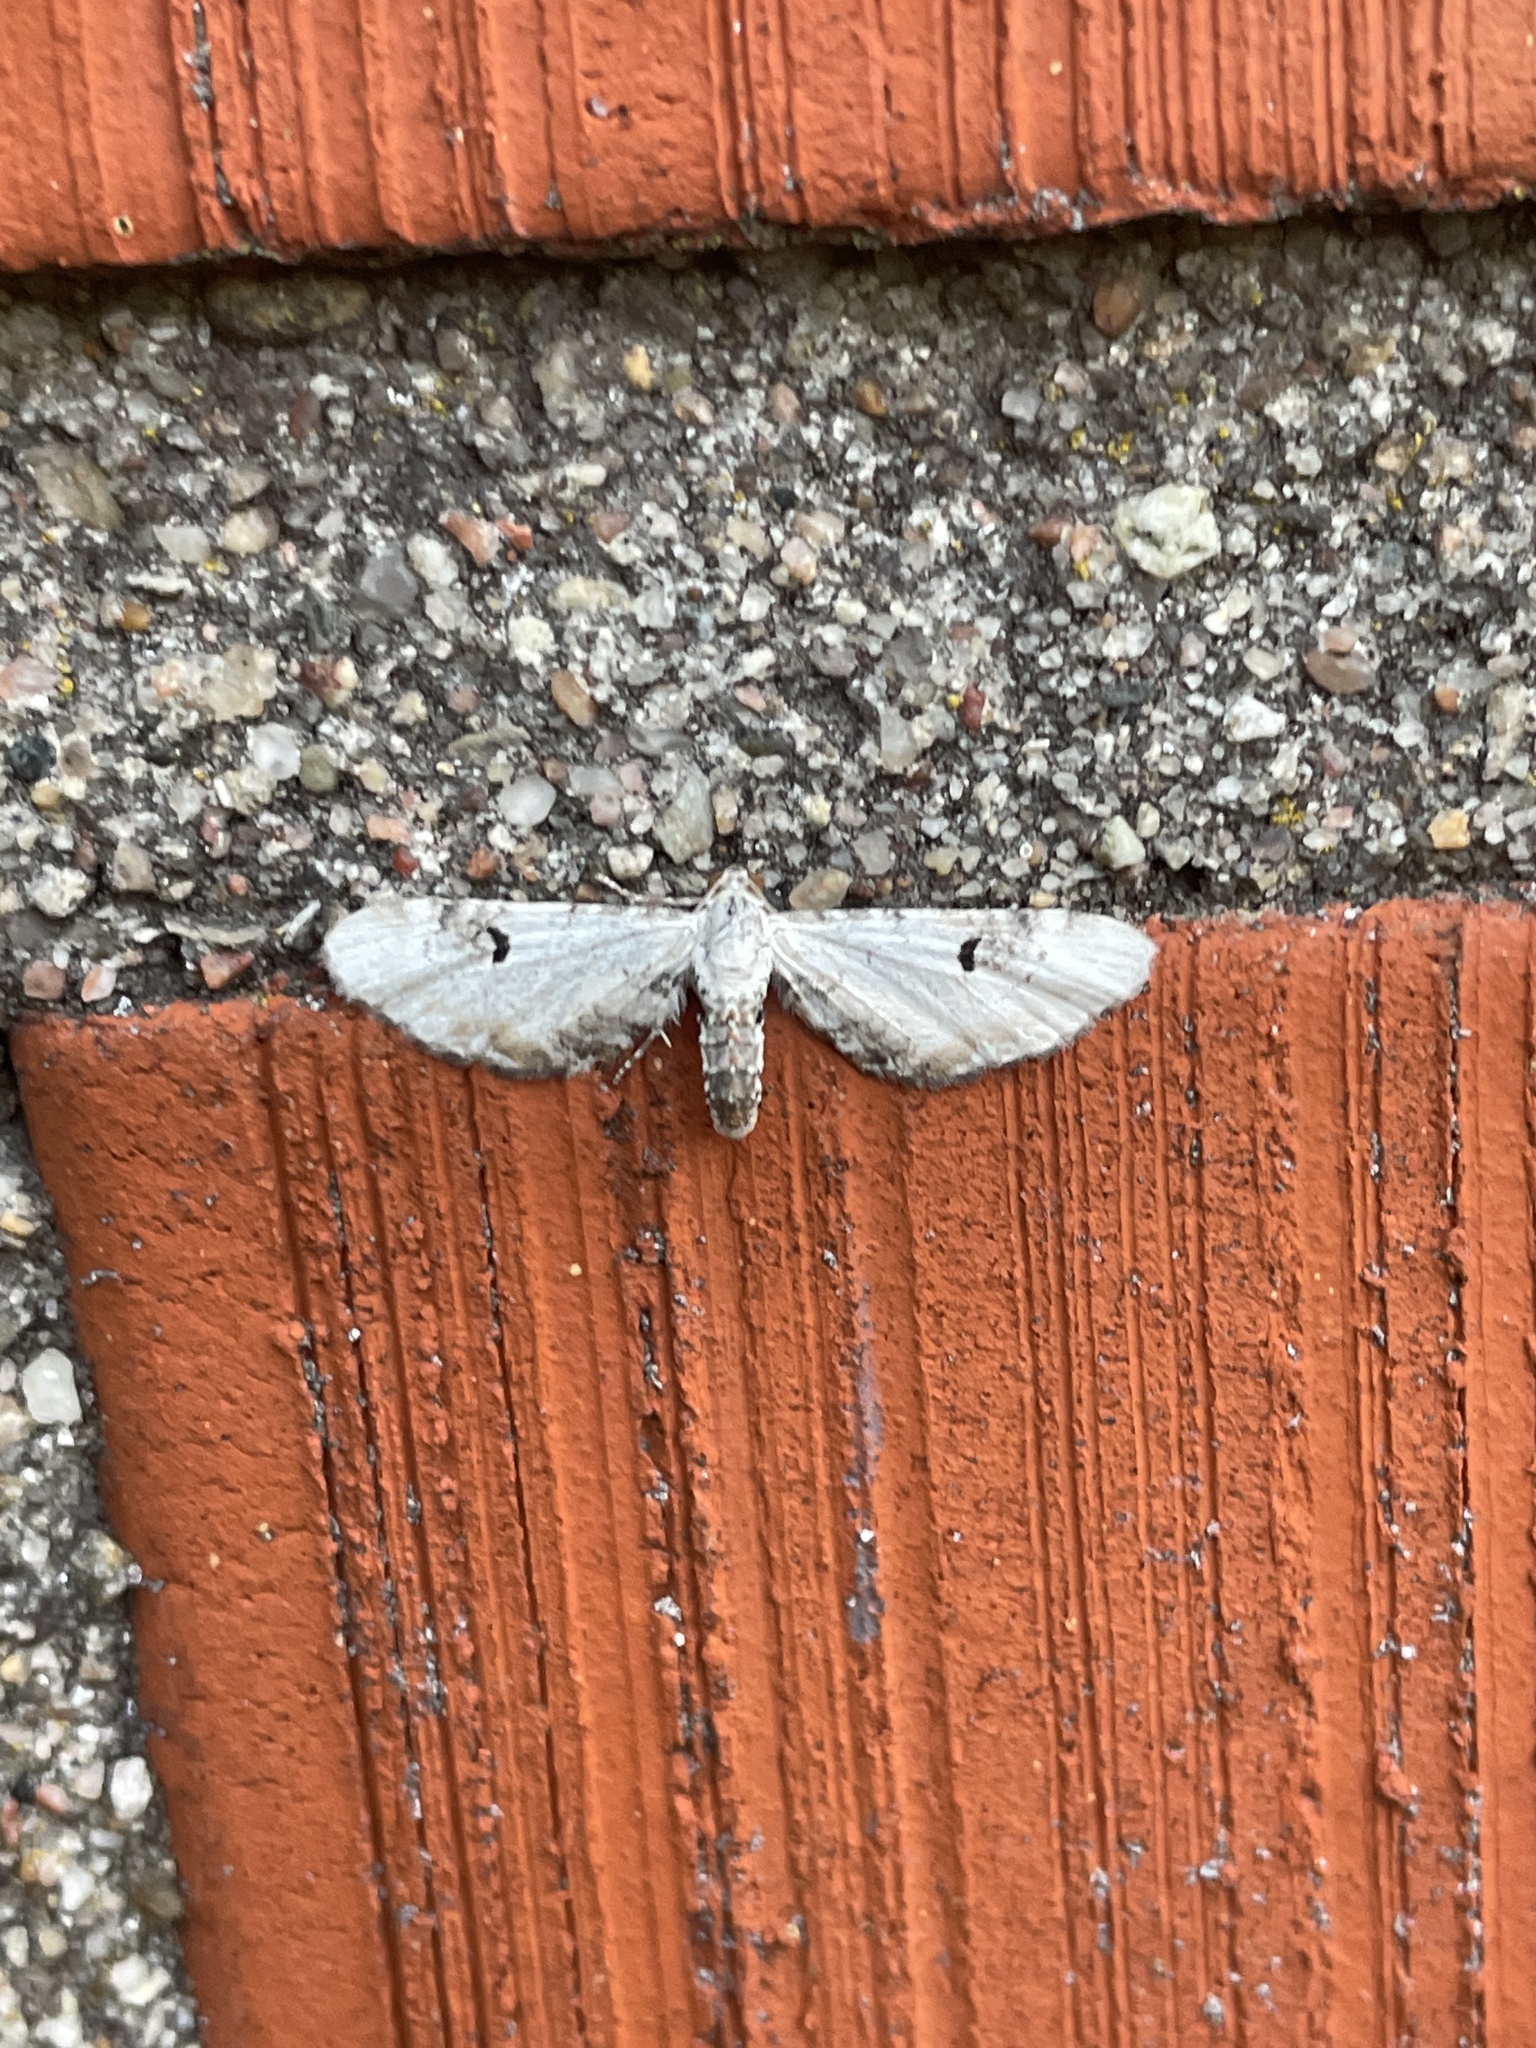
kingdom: Animalia
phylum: Arthropoda
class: Insecta
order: Lepidoptera
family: Geometridae
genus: Eupithecia
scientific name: Eupithecia centaureata
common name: Lime-speck pug
